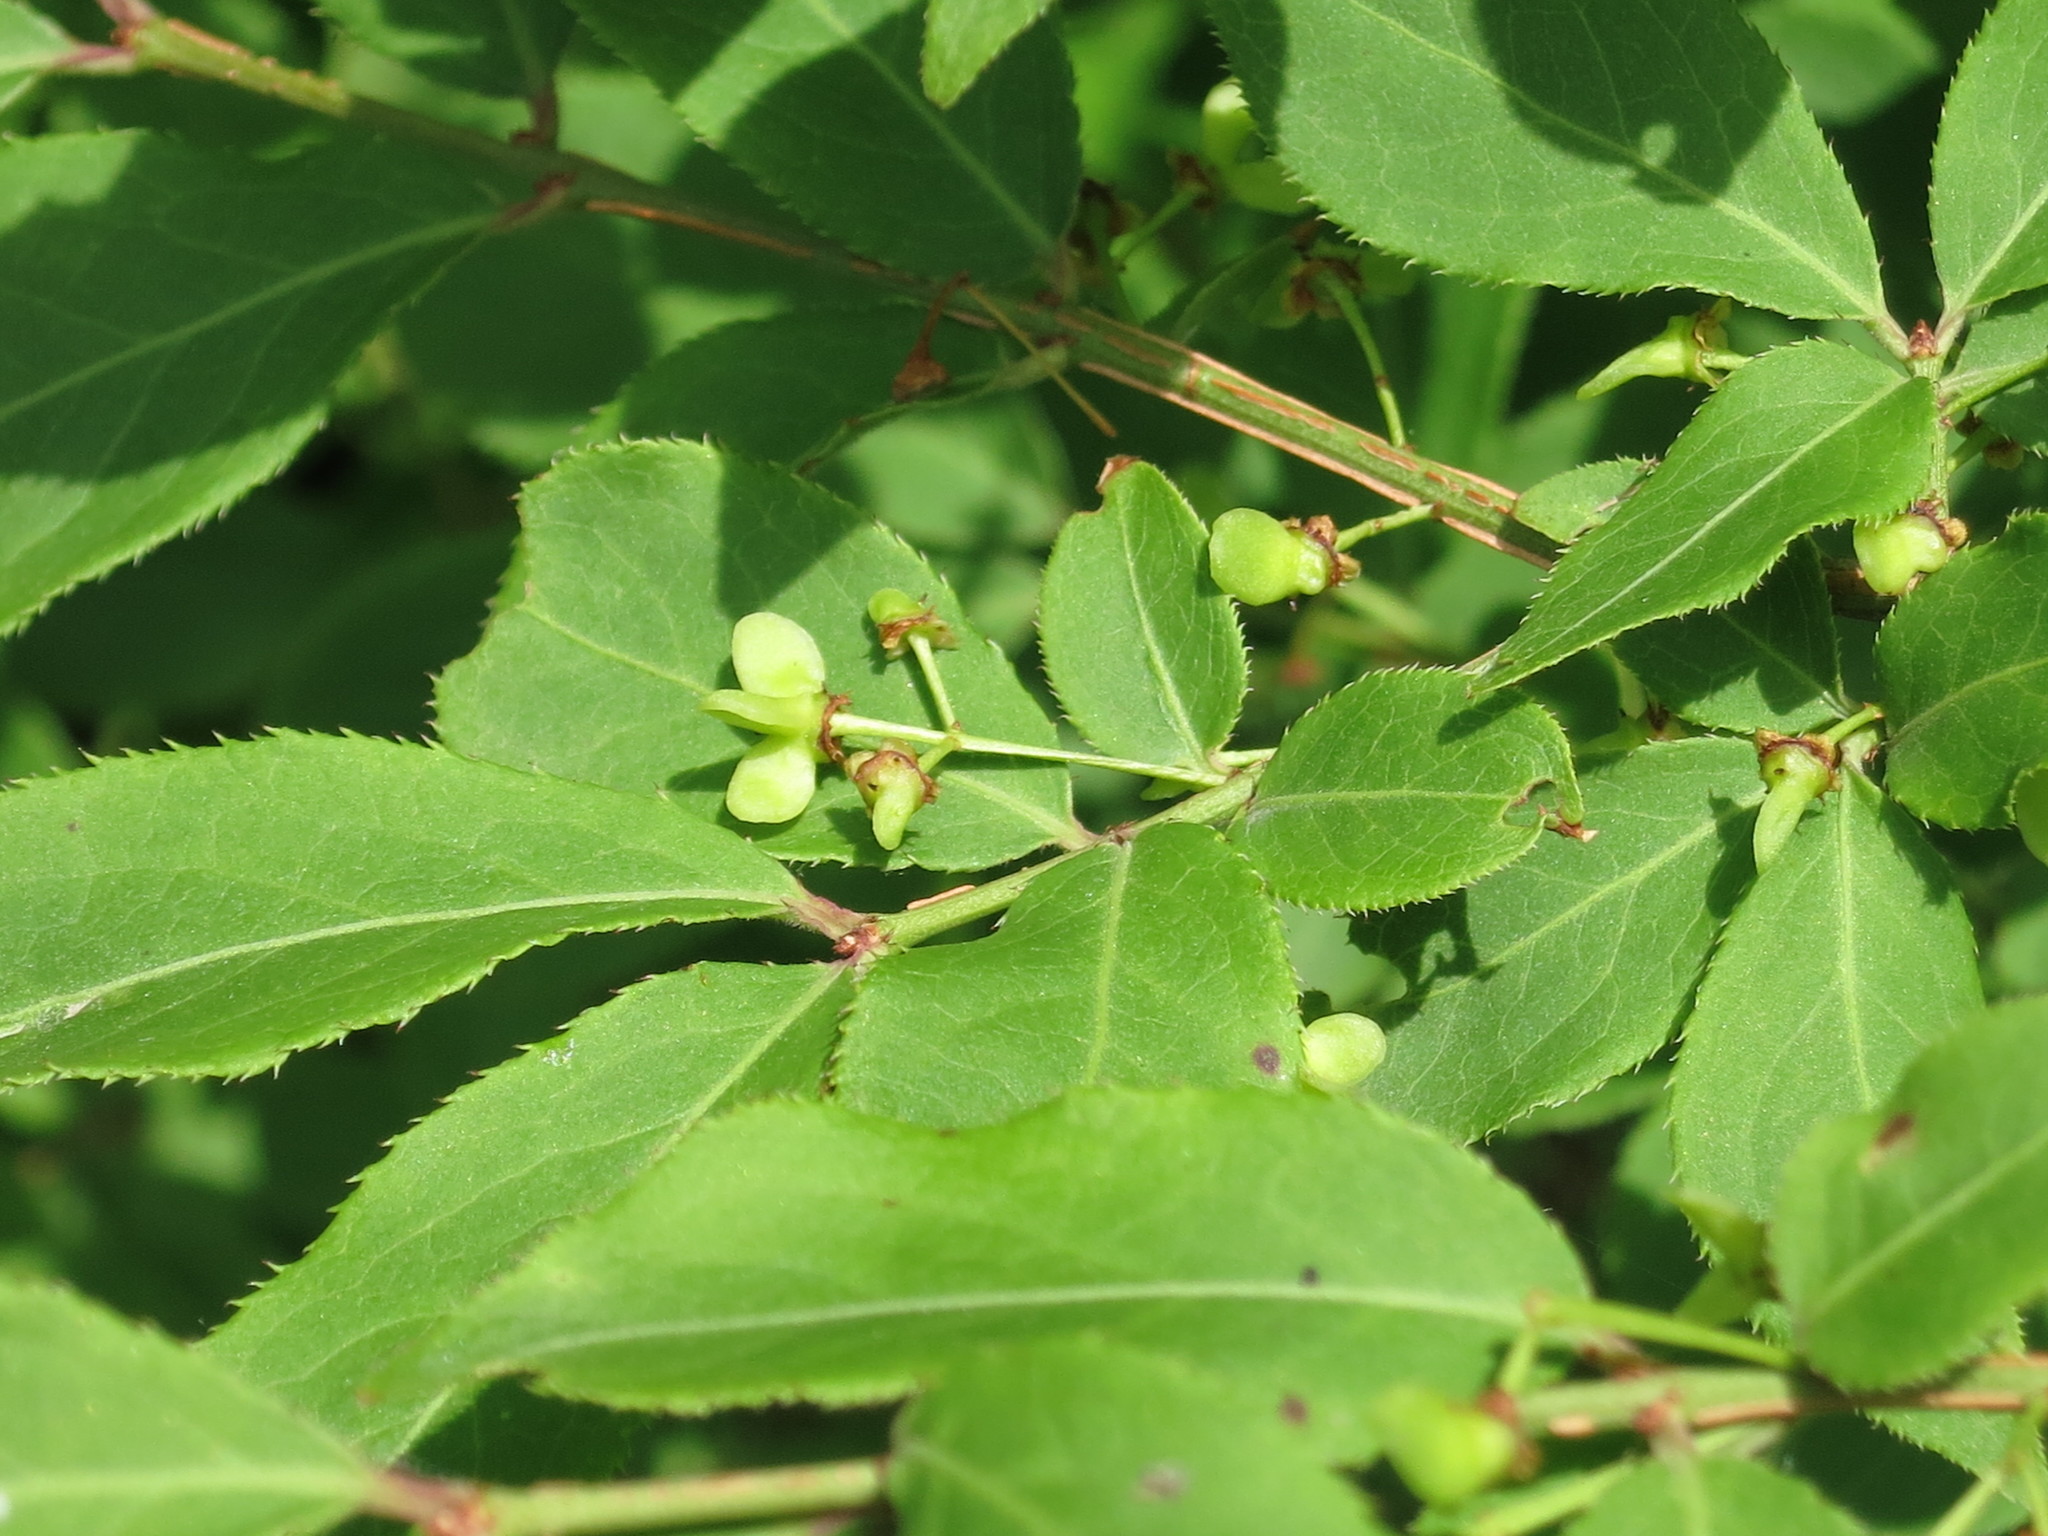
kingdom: Plantae
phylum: Tracheophyta
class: Magnoliopsida
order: Celastrales
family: Celastraceae
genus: Euonymus
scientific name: Euonymus alatus
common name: Winged euonymus
